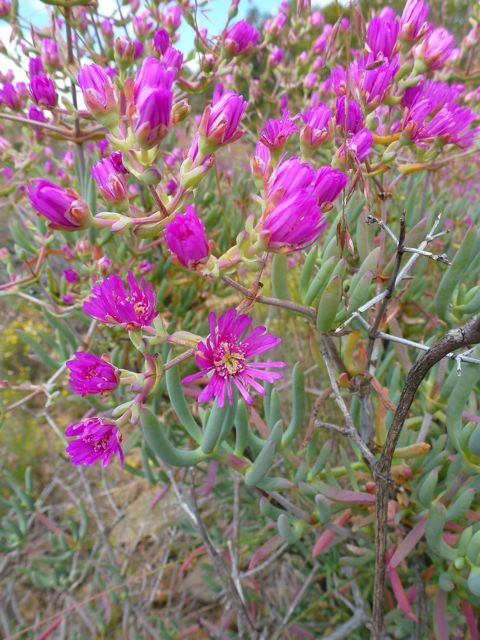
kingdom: Plantae
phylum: Tracheophyta
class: Magnoliopsida
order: Caryophyllales
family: Aizoaceae
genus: Ruschia
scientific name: Ruschia pungens
